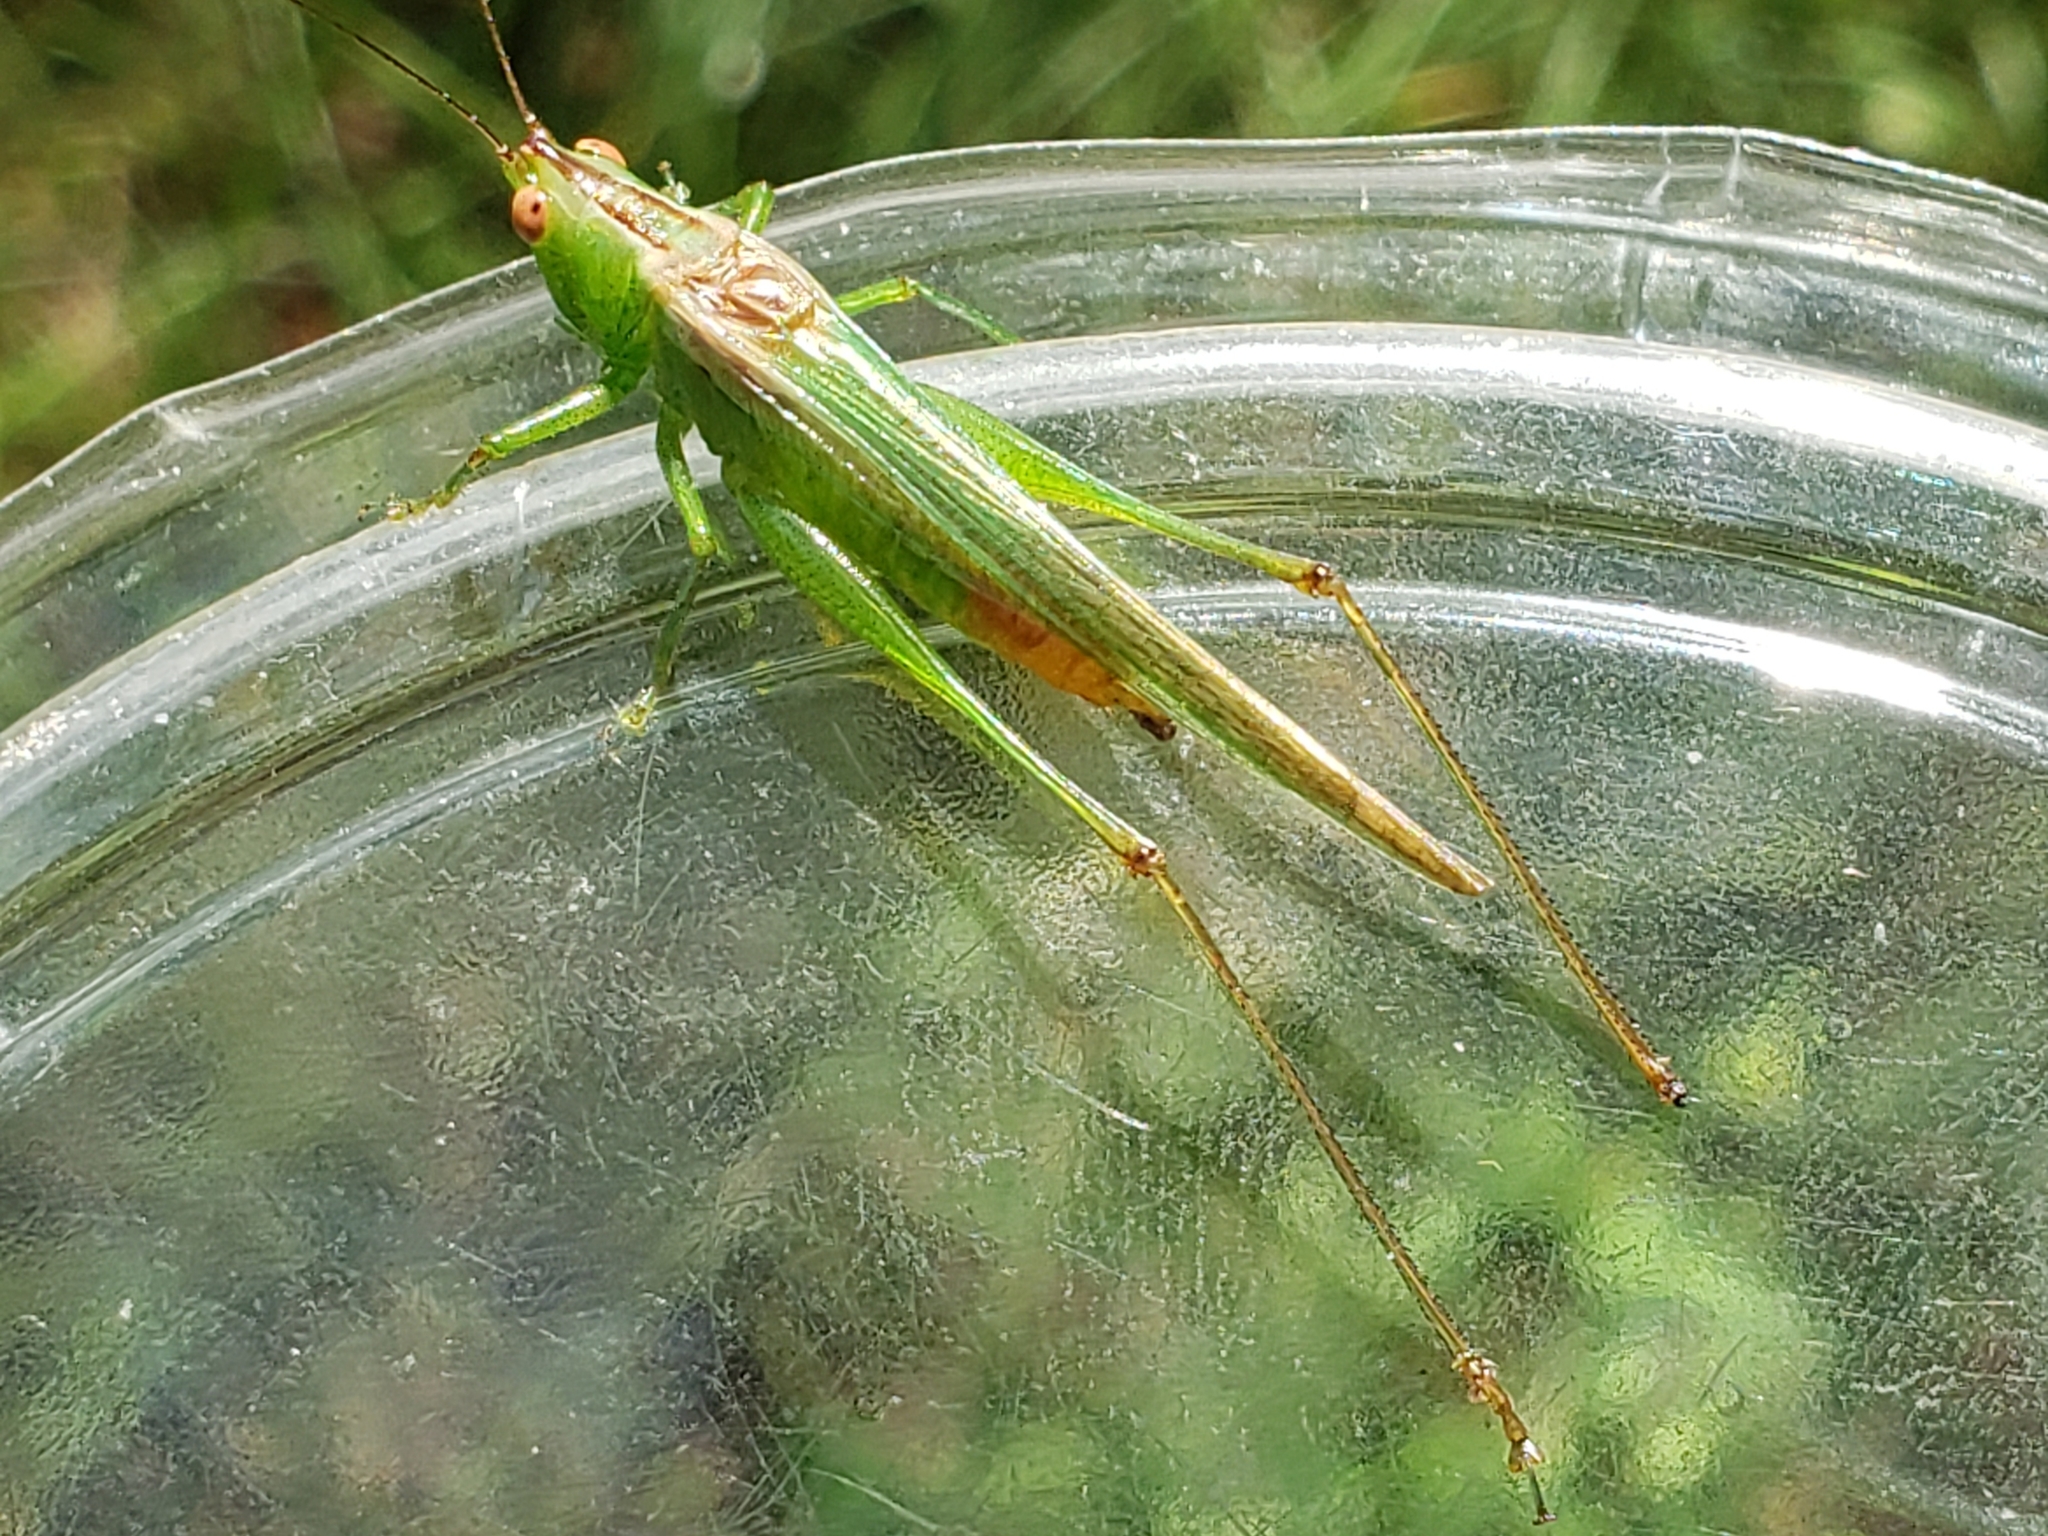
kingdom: Animalia
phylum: Arthropoda
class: Insecta
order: Orthoptera
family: Tettigoniidae
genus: Conocephalus
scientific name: Conocephalus cinereus
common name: Caribbean meadow katydid
